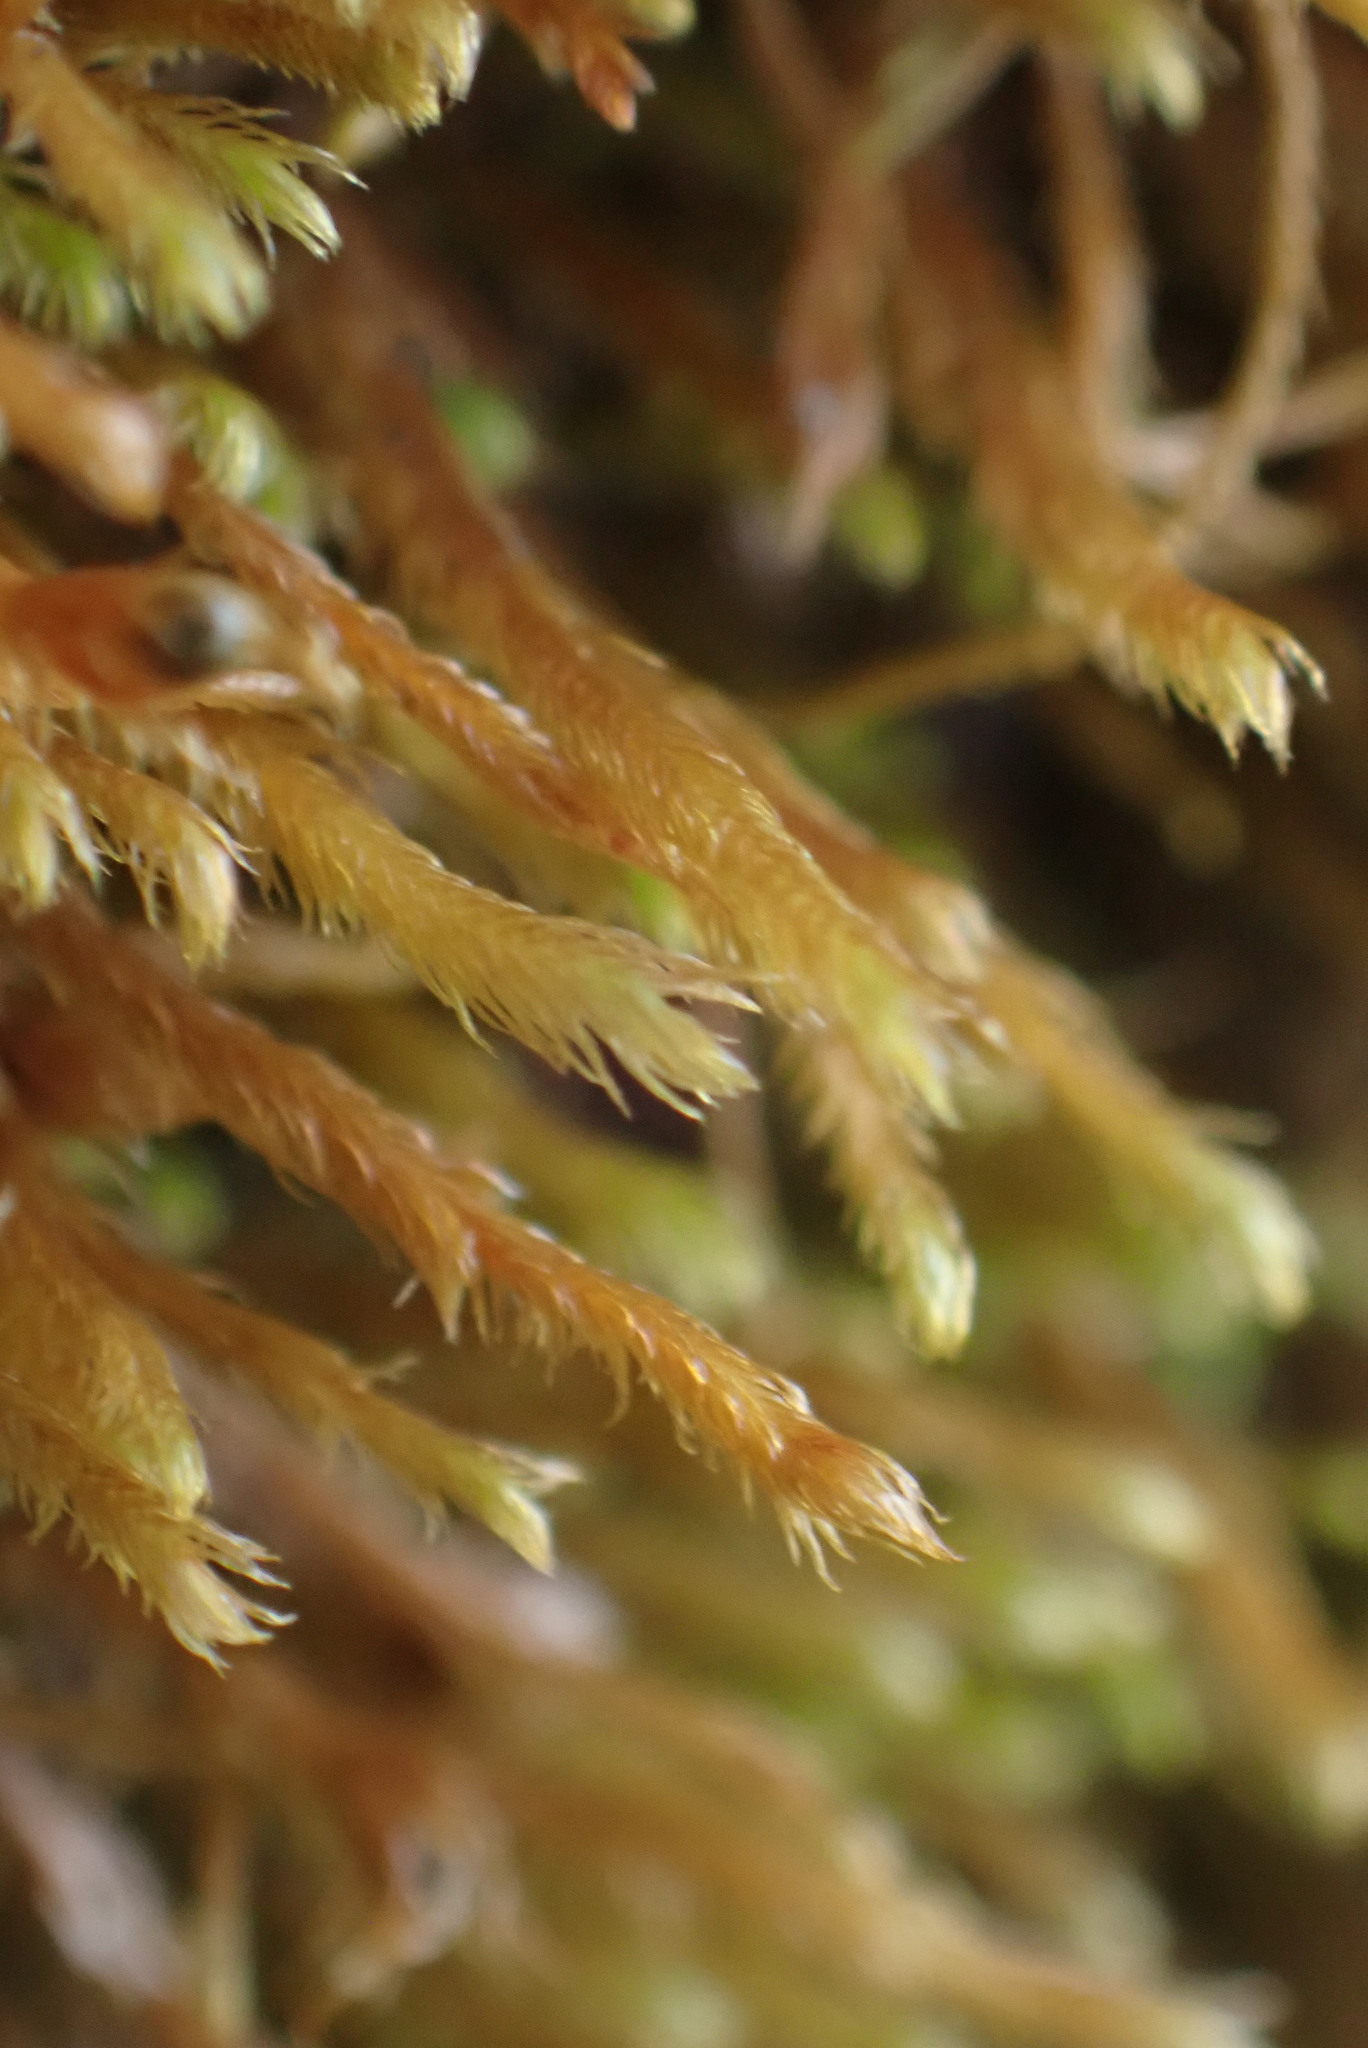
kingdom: Plantae
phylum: Marchantiophyta
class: Jungermanniopsida
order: Jungermanniales
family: Herbertaceae
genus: Herbertus
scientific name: Herbertus aduncus
